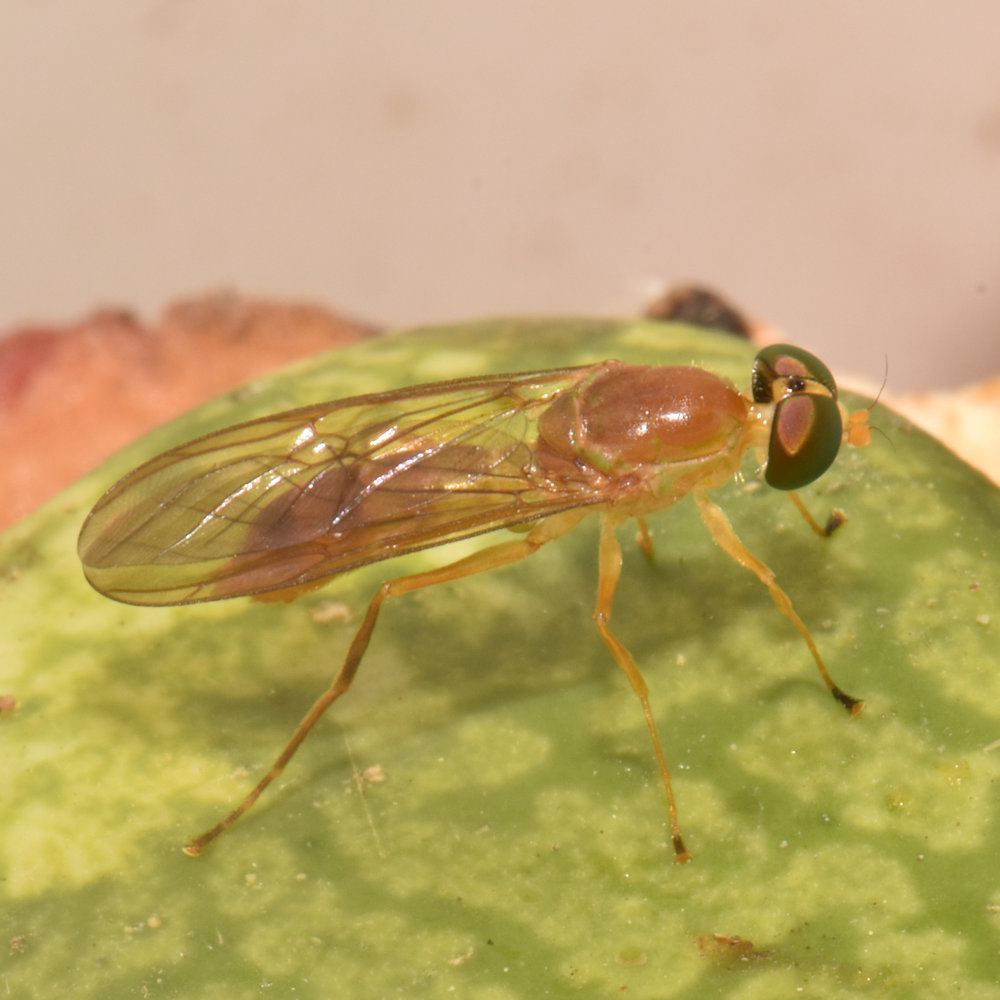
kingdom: Animalia
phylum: Arthropoda
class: Insecta
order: Diptera
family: Stratiomyidae
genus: Ptecticus
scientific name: Ptecticus trivittatus
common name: Compost fly
